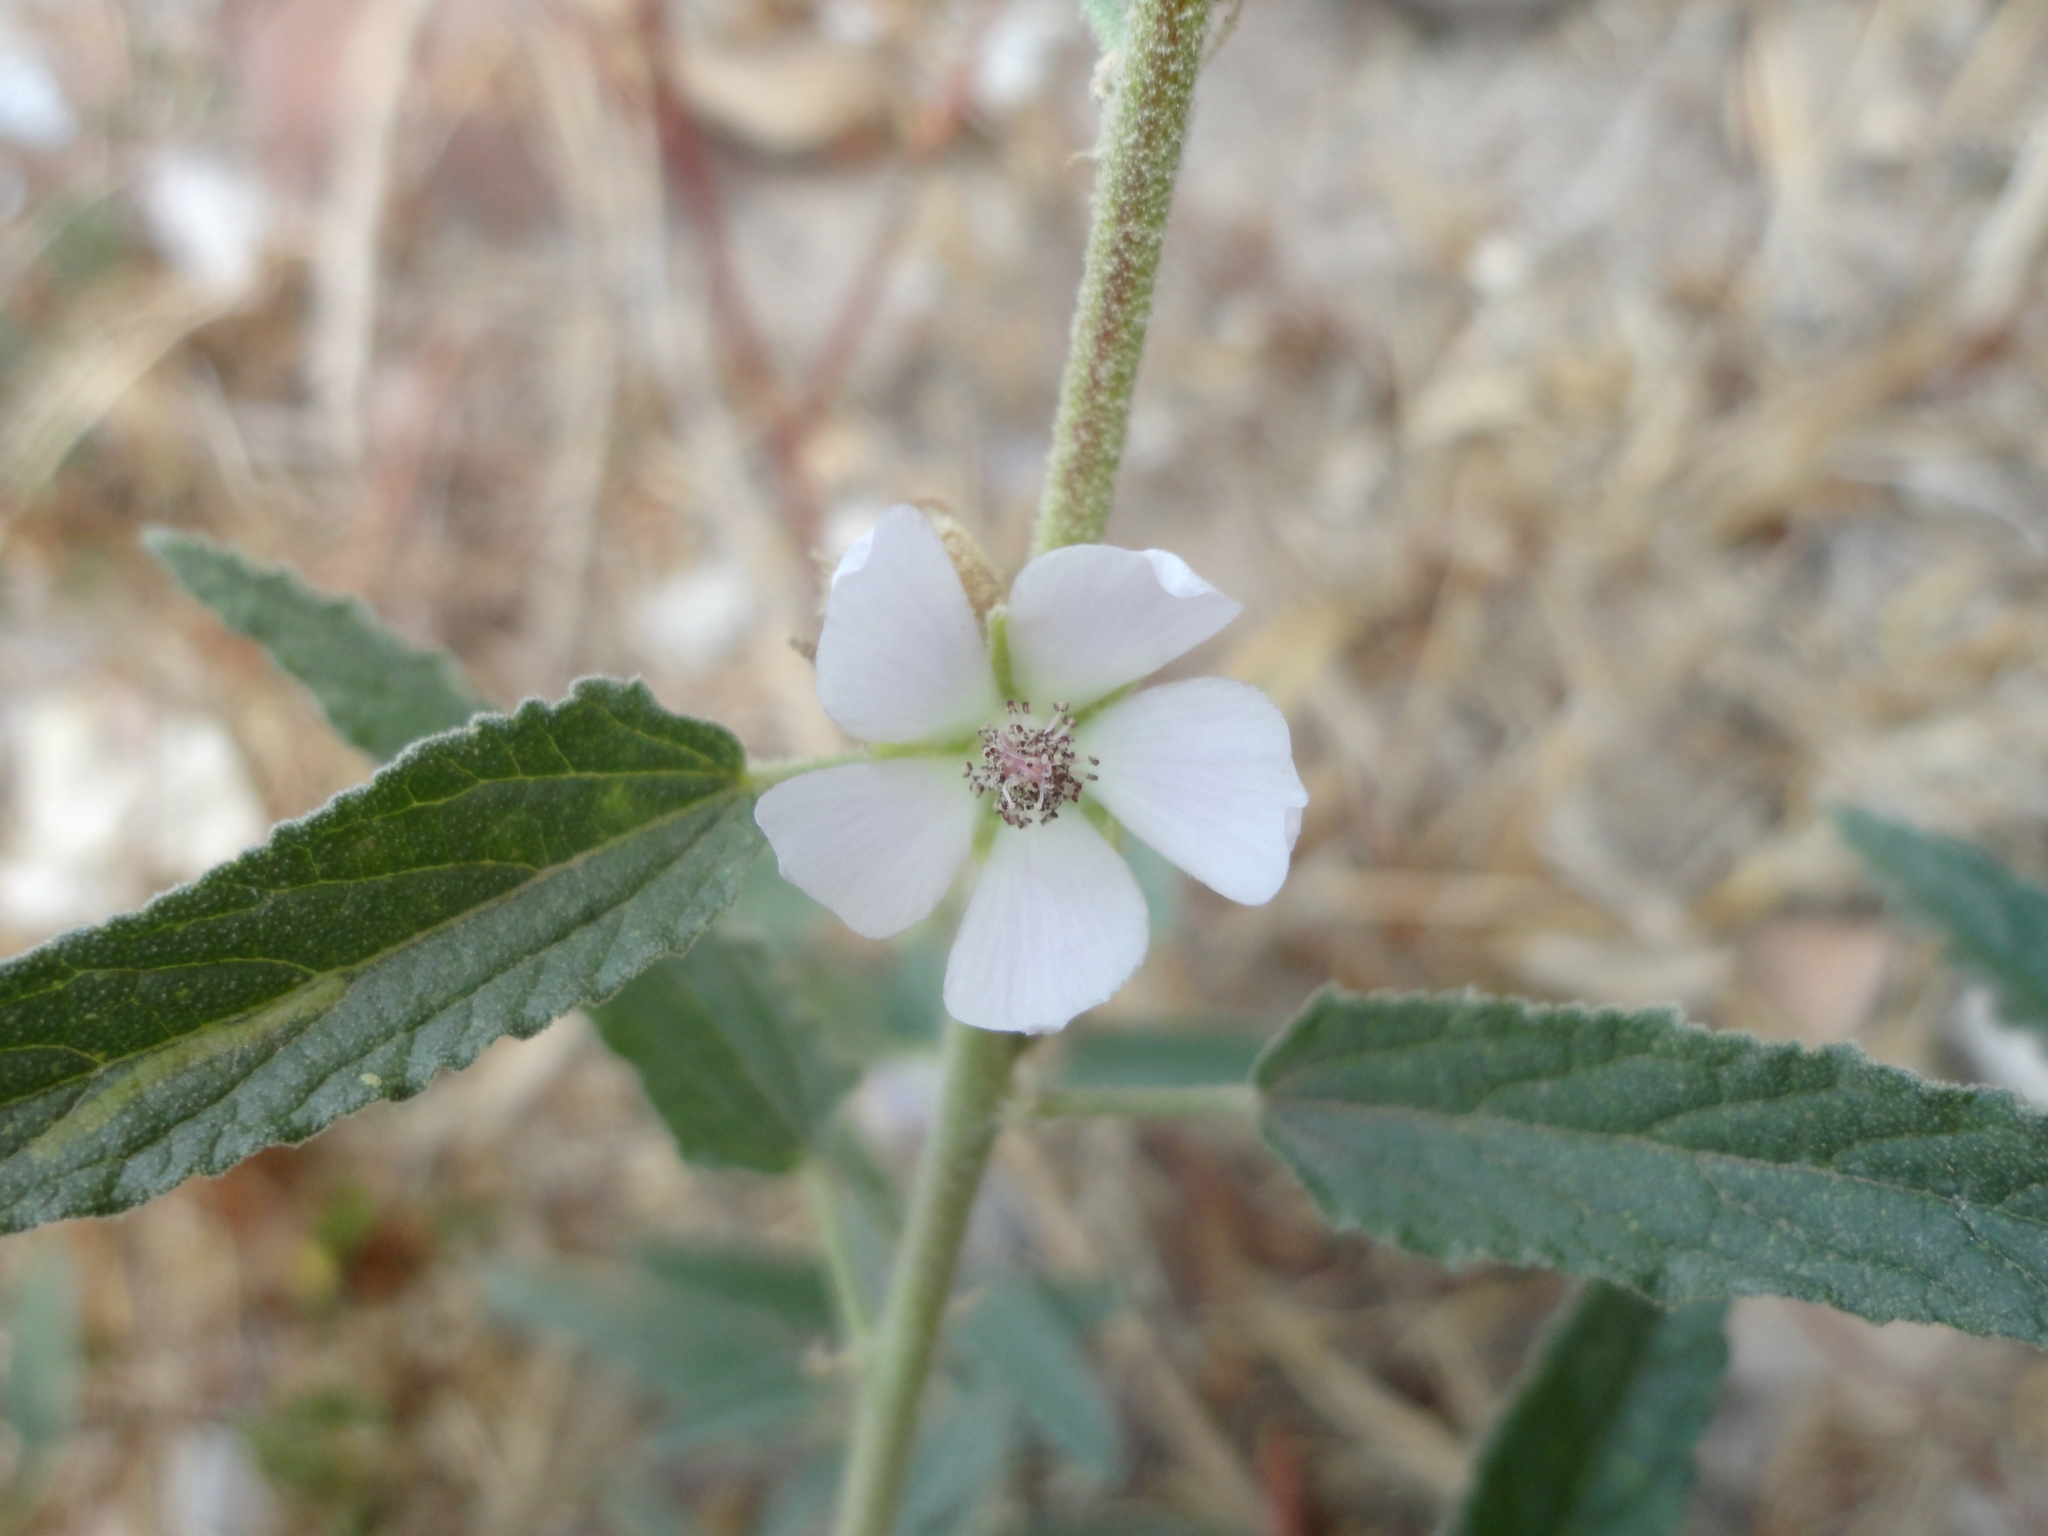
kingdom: Plantae
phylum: Tracheophyta
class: Magnoliopsida
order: Malvales
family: Malvaceae
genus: Sphaeralcea
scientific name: Sphaeralcea angustifolia
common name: Copper globe-mallow
